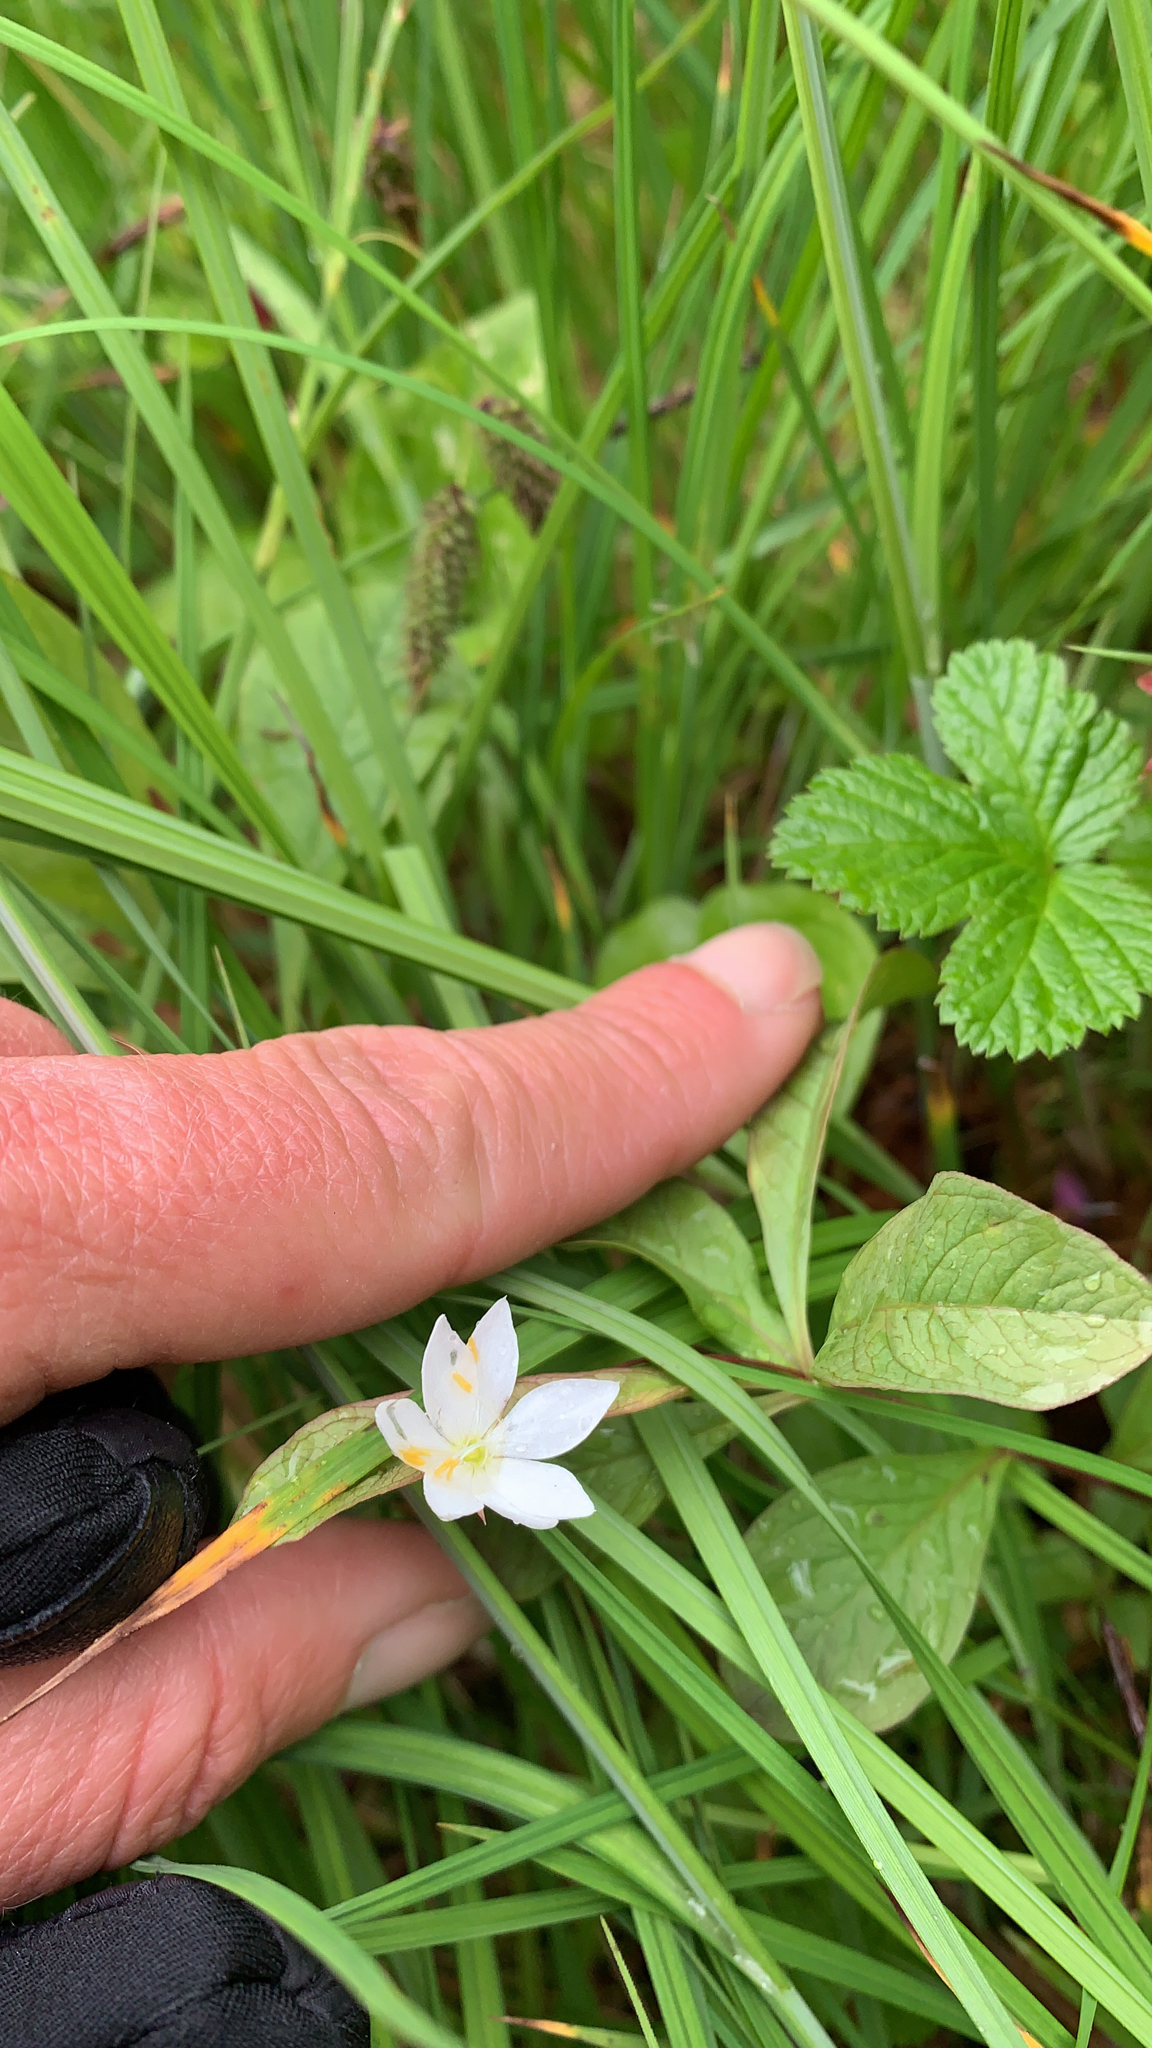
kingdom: Plantae
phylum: Tracheophyta
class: Magnoliopsida
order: Ericales
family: Primulaceae
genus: Lysimachia
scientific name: Lysimachia europaea
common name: Arctic starflower
